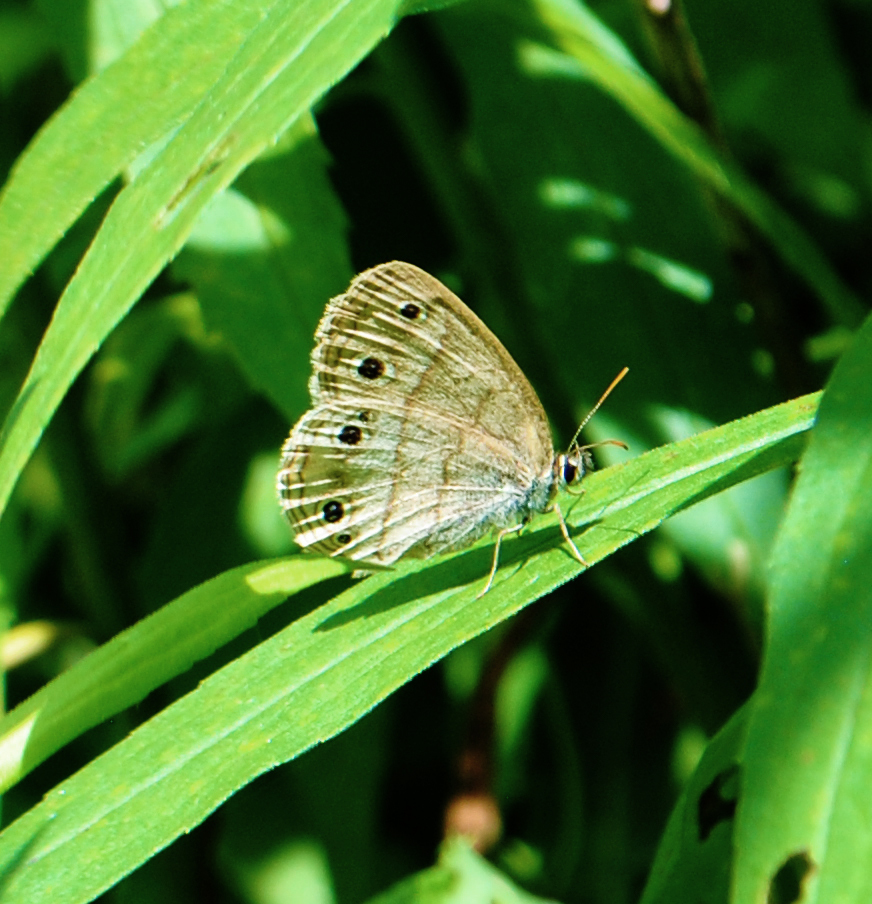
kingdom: Animalia
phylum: Arthropoda
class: Insecta
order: Lepidoptera
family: Nymphalidae
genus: Euptychia
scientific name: Euptychia cymela
